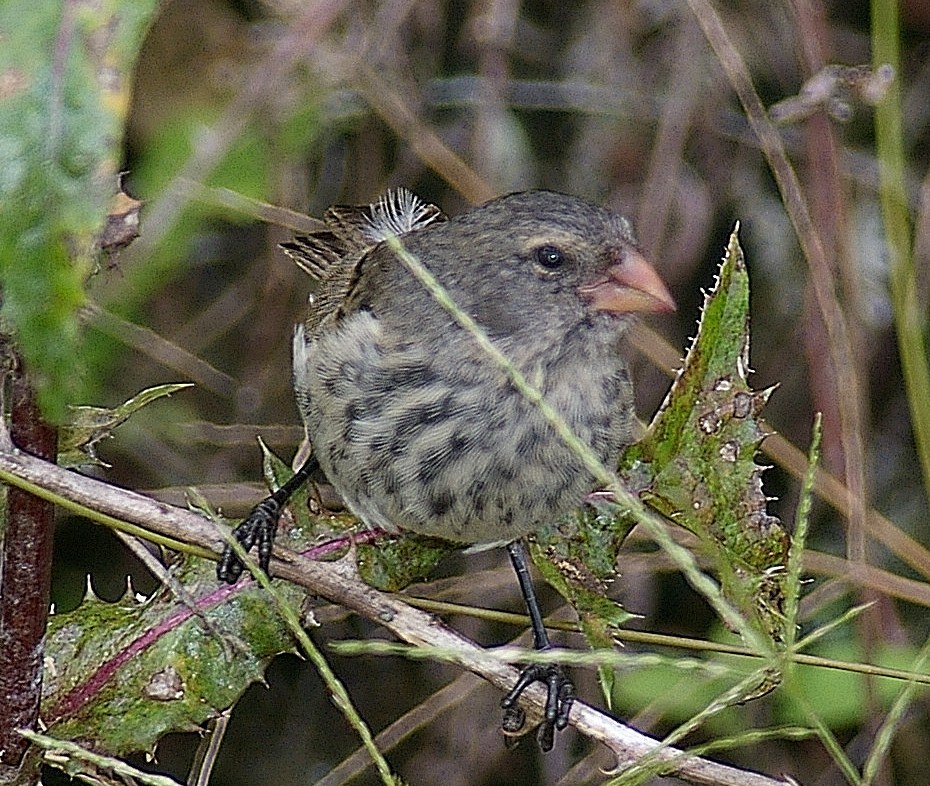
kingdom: Animalia
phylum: Chordata
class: Aves
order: Passeriformes
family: Thraupidae
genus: Geospiza
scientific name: Geospiza fuliginosa
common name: Small ground finch
